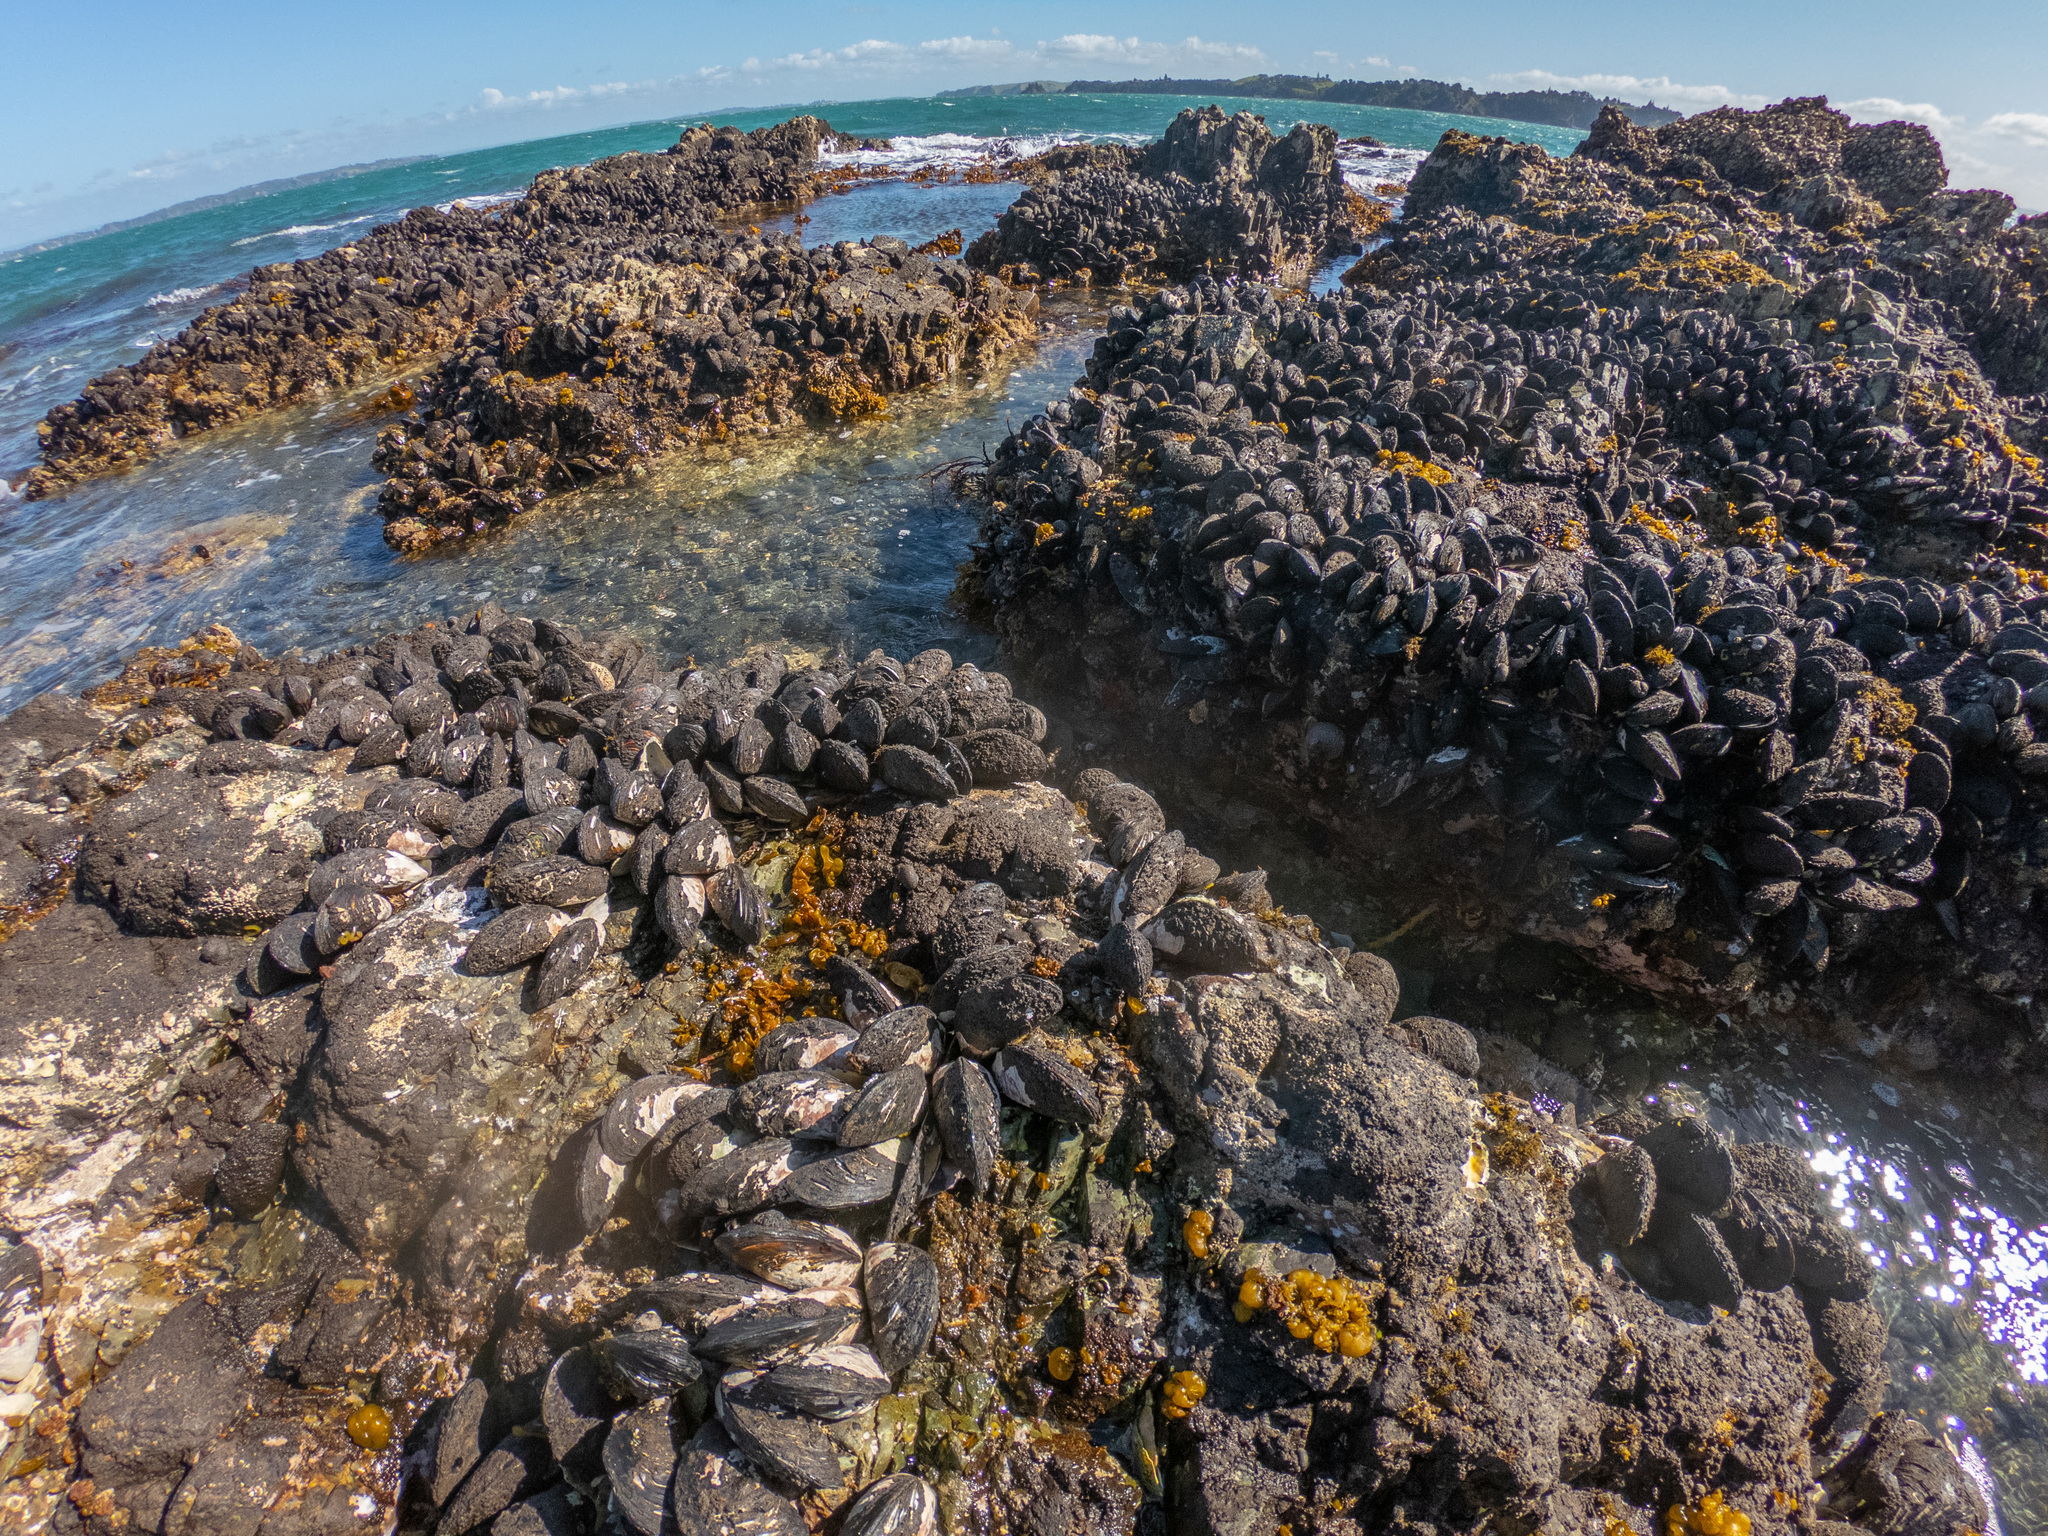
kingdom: Animalia
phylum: Mollusca
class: Bivalvia
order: Mytilida
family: Mytilidae
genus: Perna
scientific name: Perna canaliculus
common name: New zealand greenshelltm
